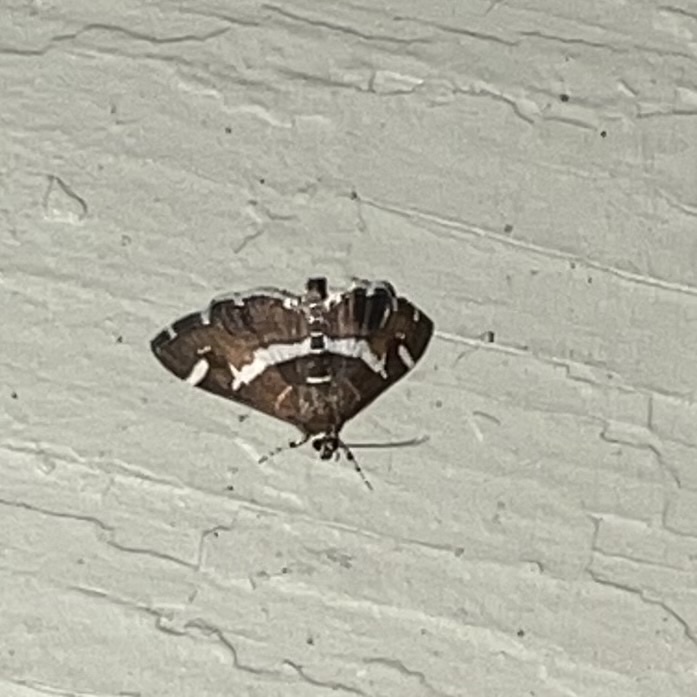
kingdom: Animalia
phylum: Arthropoda
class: Insecta
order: Lepidoptera
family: Crambidae
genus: Spoladea
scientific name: Spoladea recurvalis
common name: Beet webworm moth
